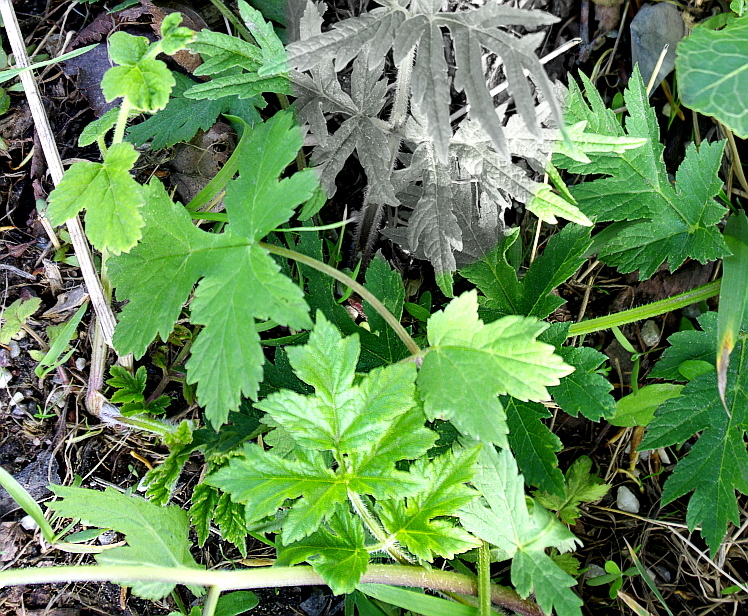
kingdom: Plantae
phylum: Tracheophyta
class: Magnoliopsida
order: Apiales
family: Apiaceae
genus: Heracleum
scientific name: Heracleum sphondylium
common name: Hogweed
